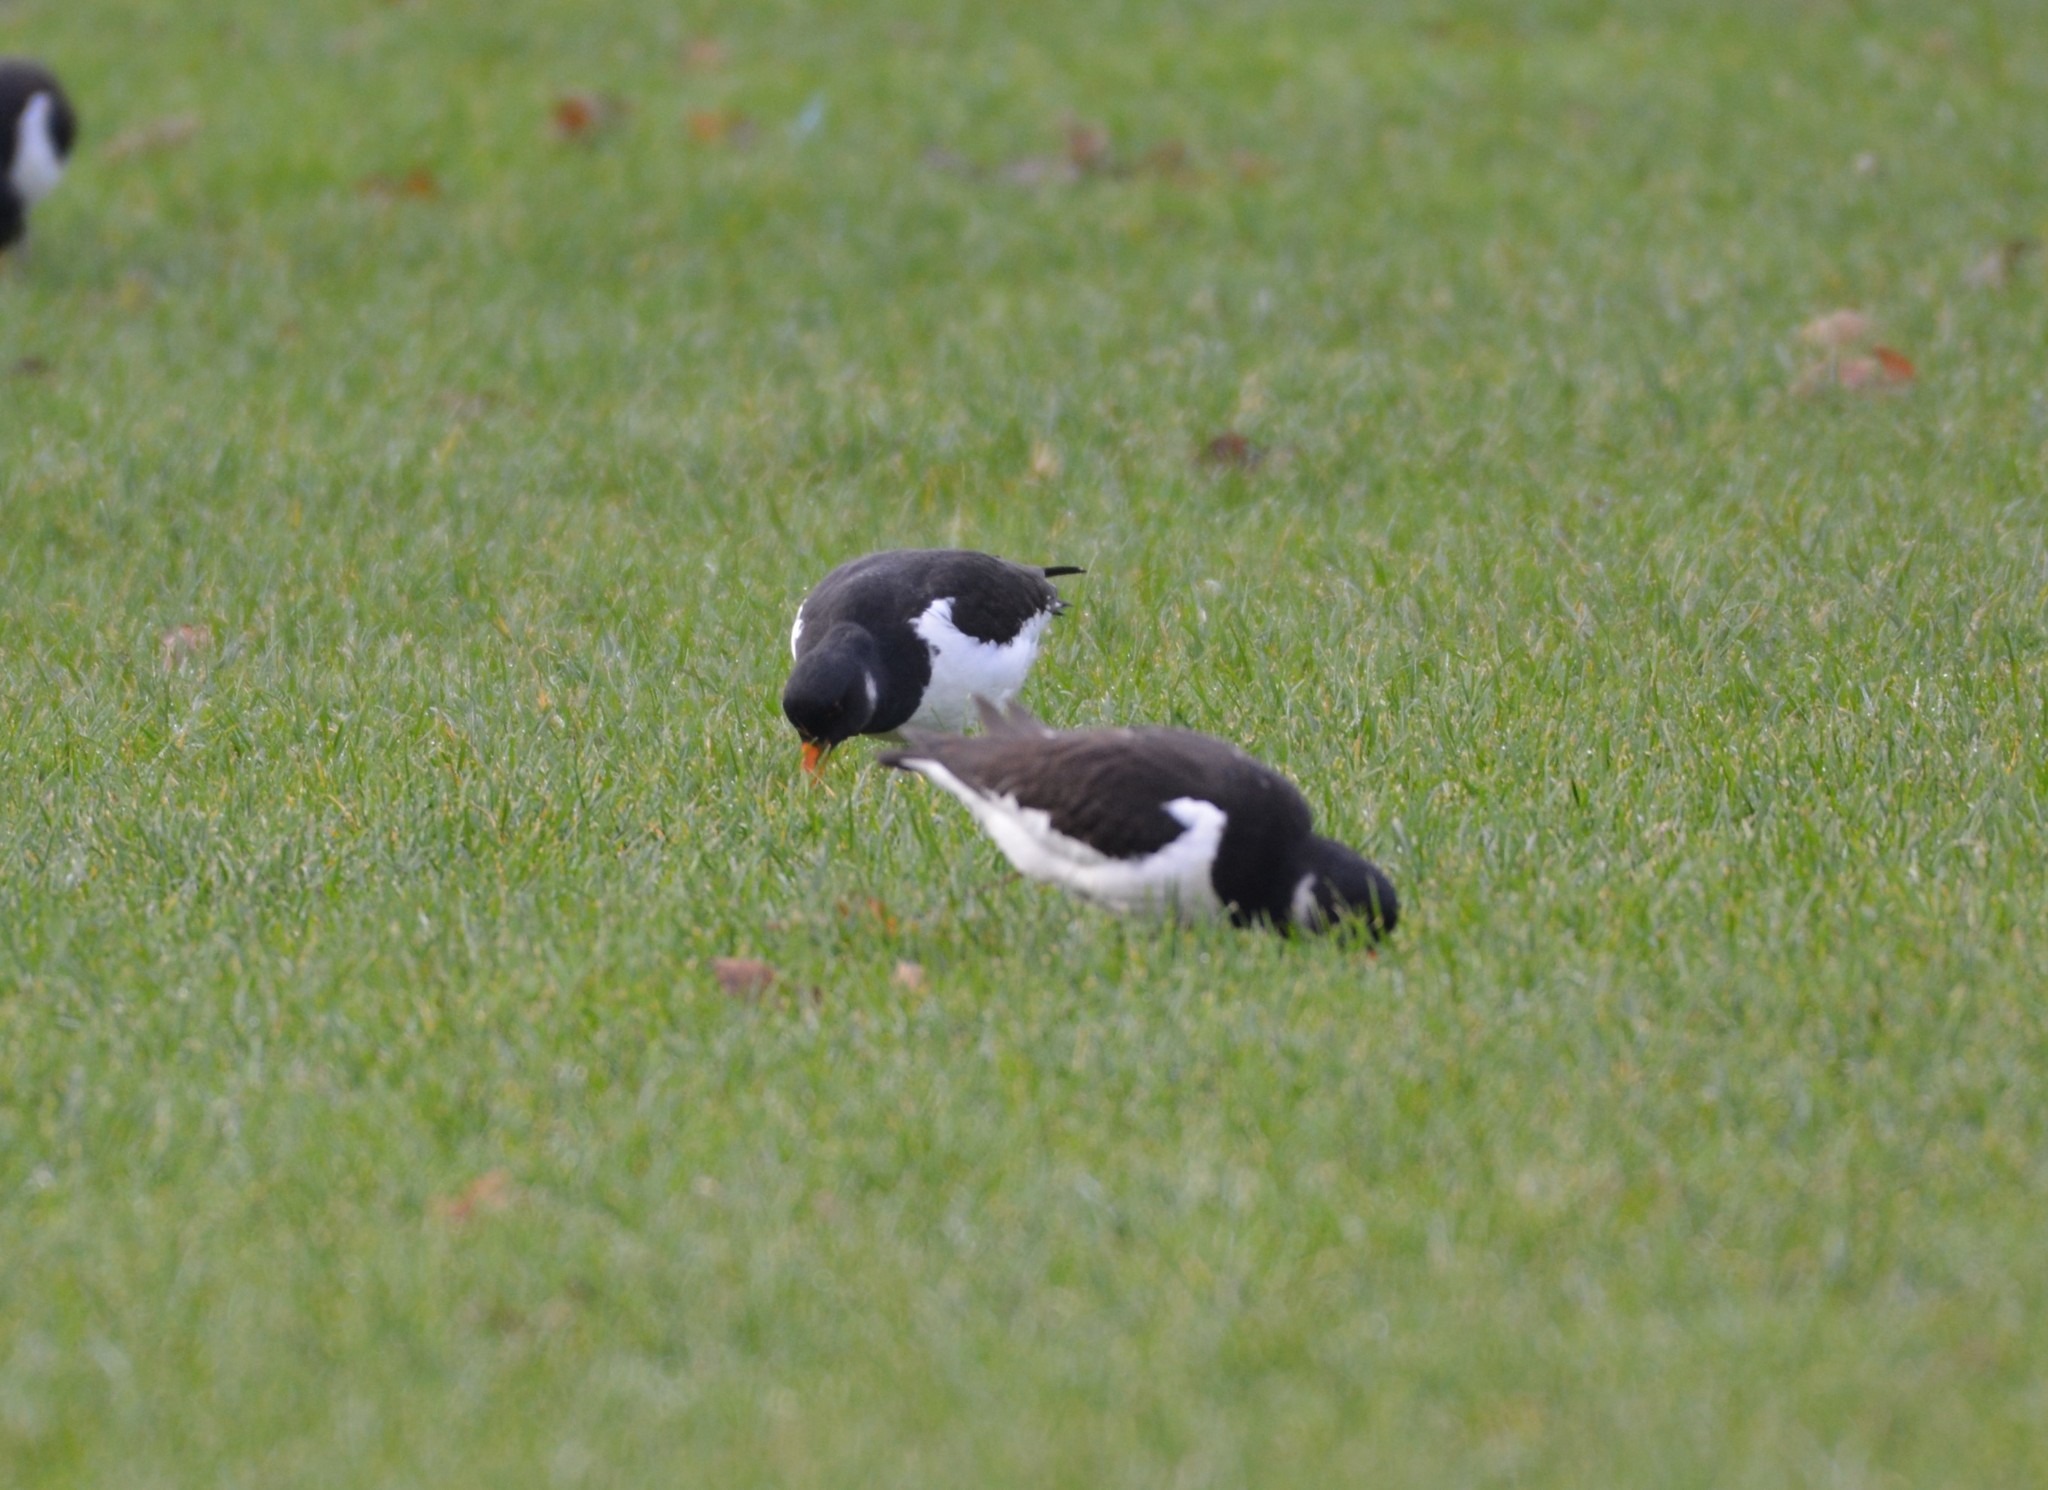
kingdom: Animalia
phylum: Chordata
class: Aves
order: Charadriiformes
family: Haematopodidae
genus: Haematopus
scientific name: Haematopus ostralegus
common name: Eurasian oystercatcher
